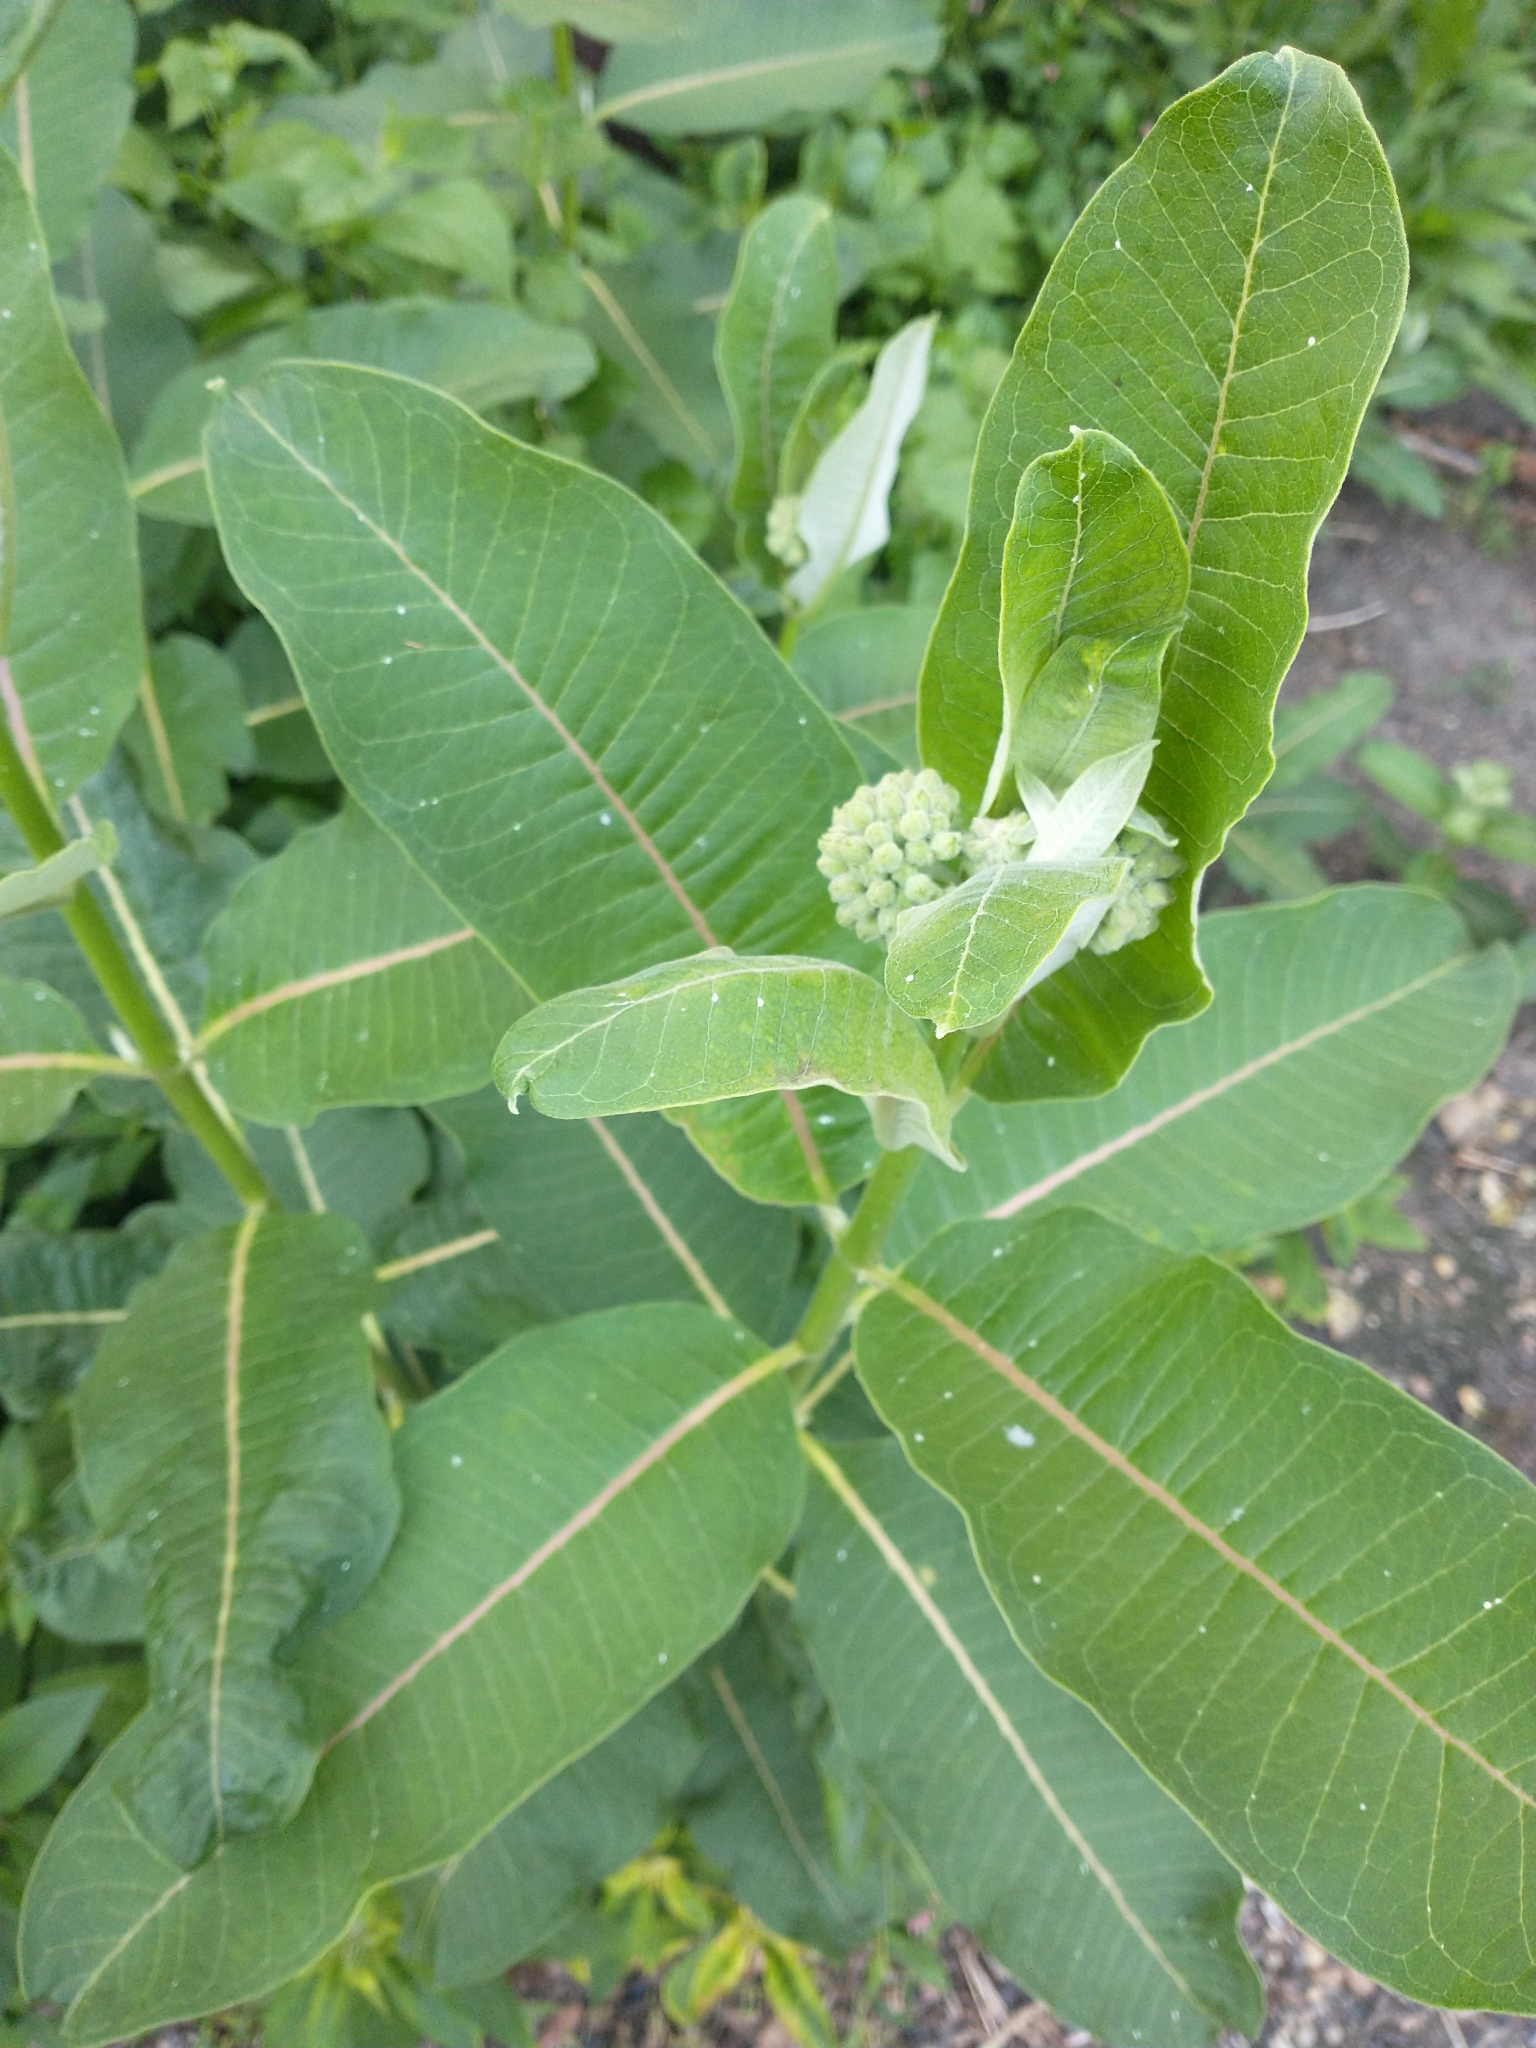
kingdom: Plantae
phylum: Tracheophyta
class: Magnoliopsida
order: Gentianales
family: Apocynaceae
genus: Asclepias
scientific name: Asclepias syriaca
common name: Common milkweed
